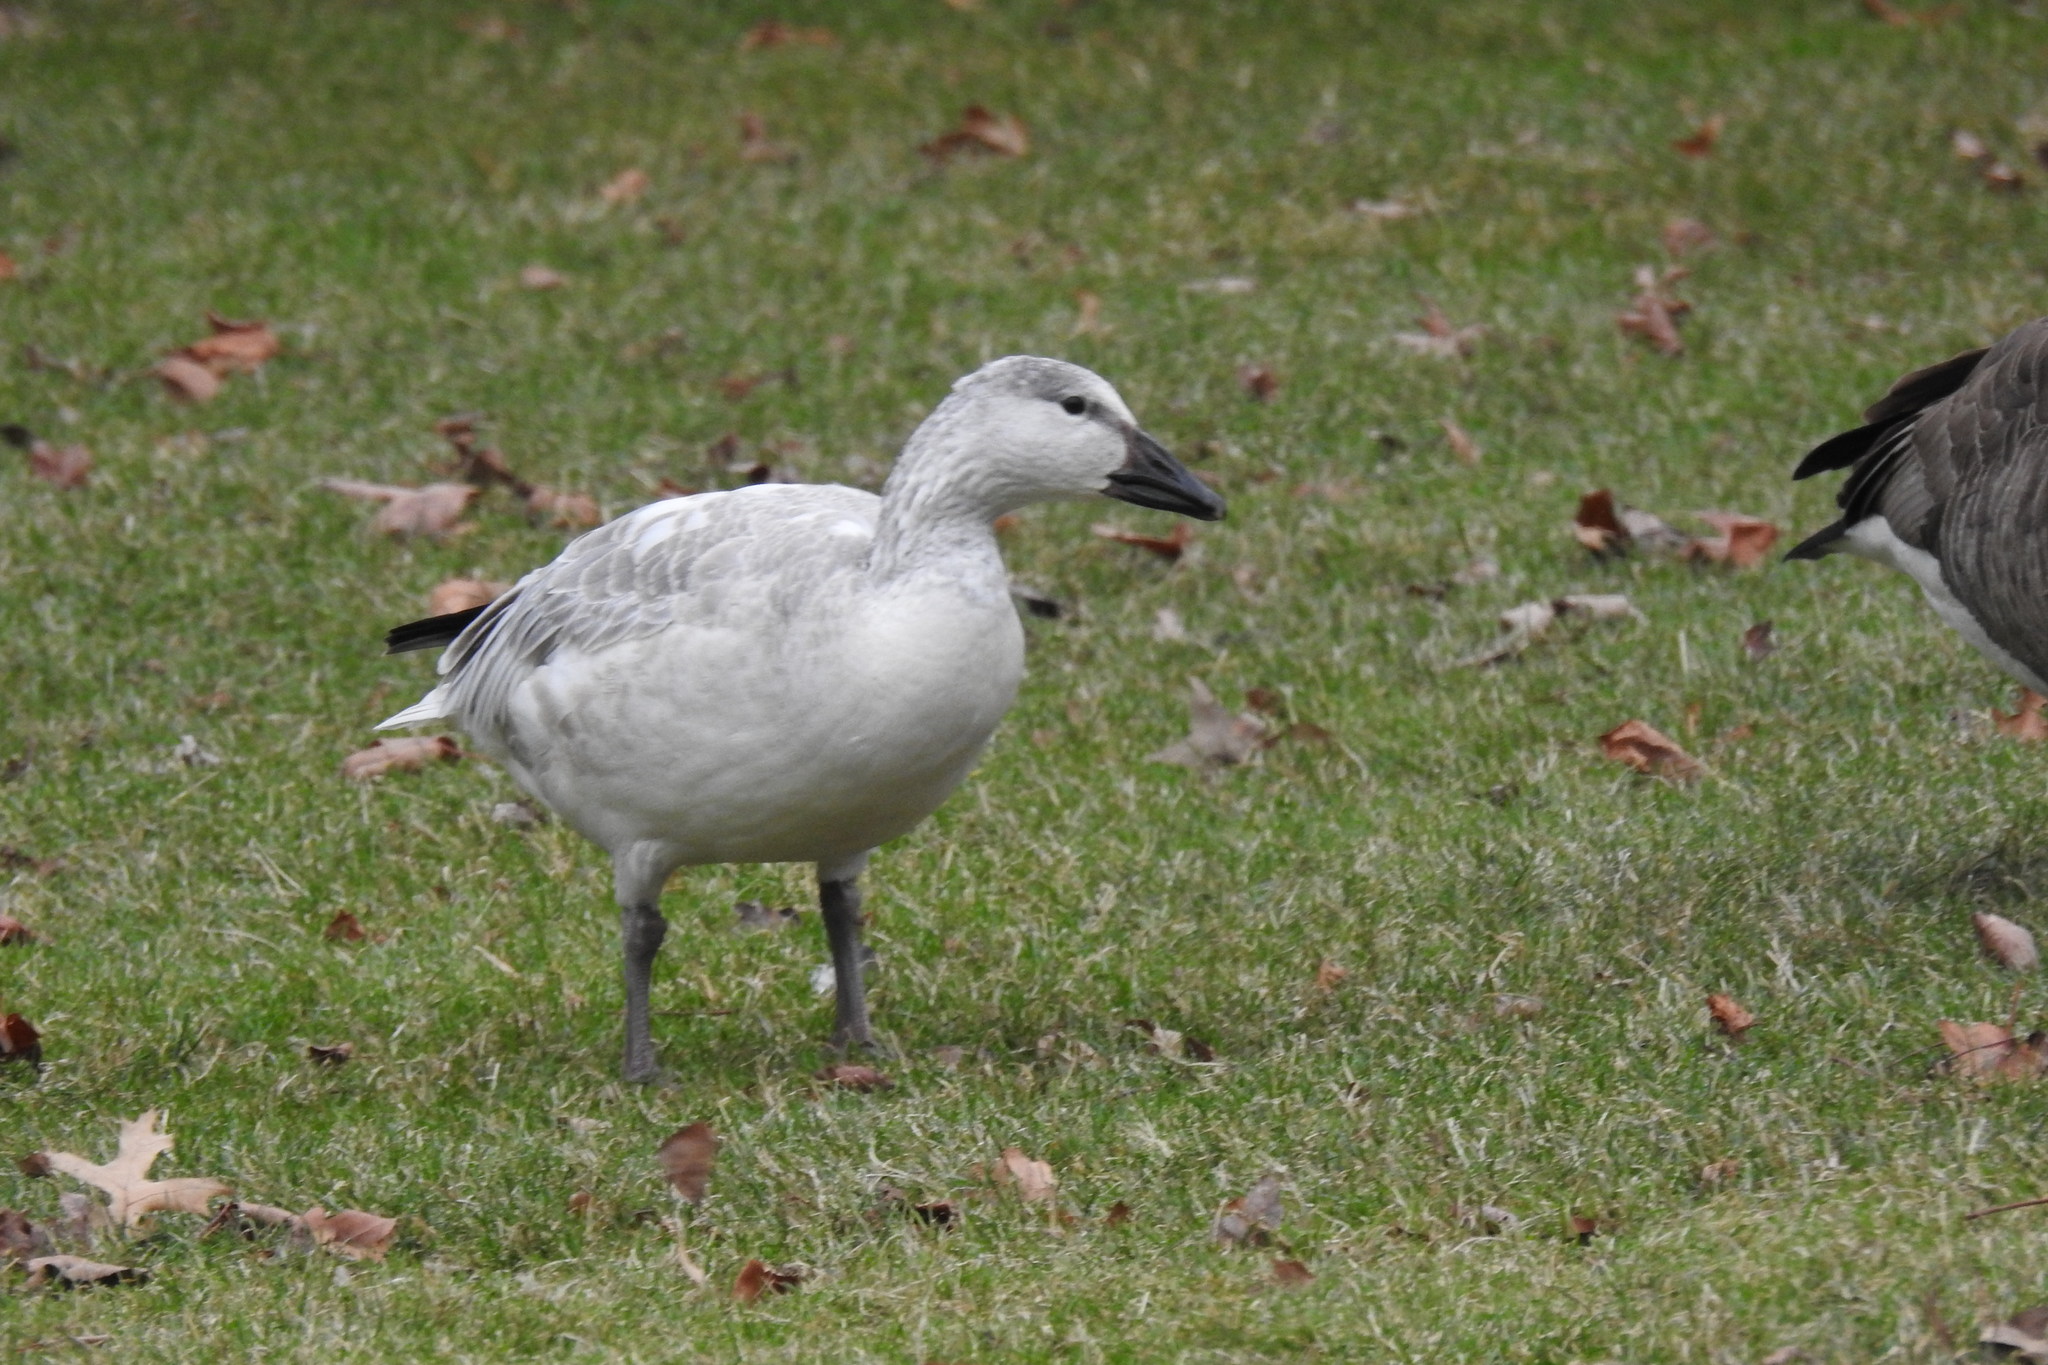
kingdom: Animalia
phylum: Chordata
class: Aves
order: Anseriformes
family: Anatidae
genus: Anser
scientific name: Anser caerulescens
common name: Snow goose
